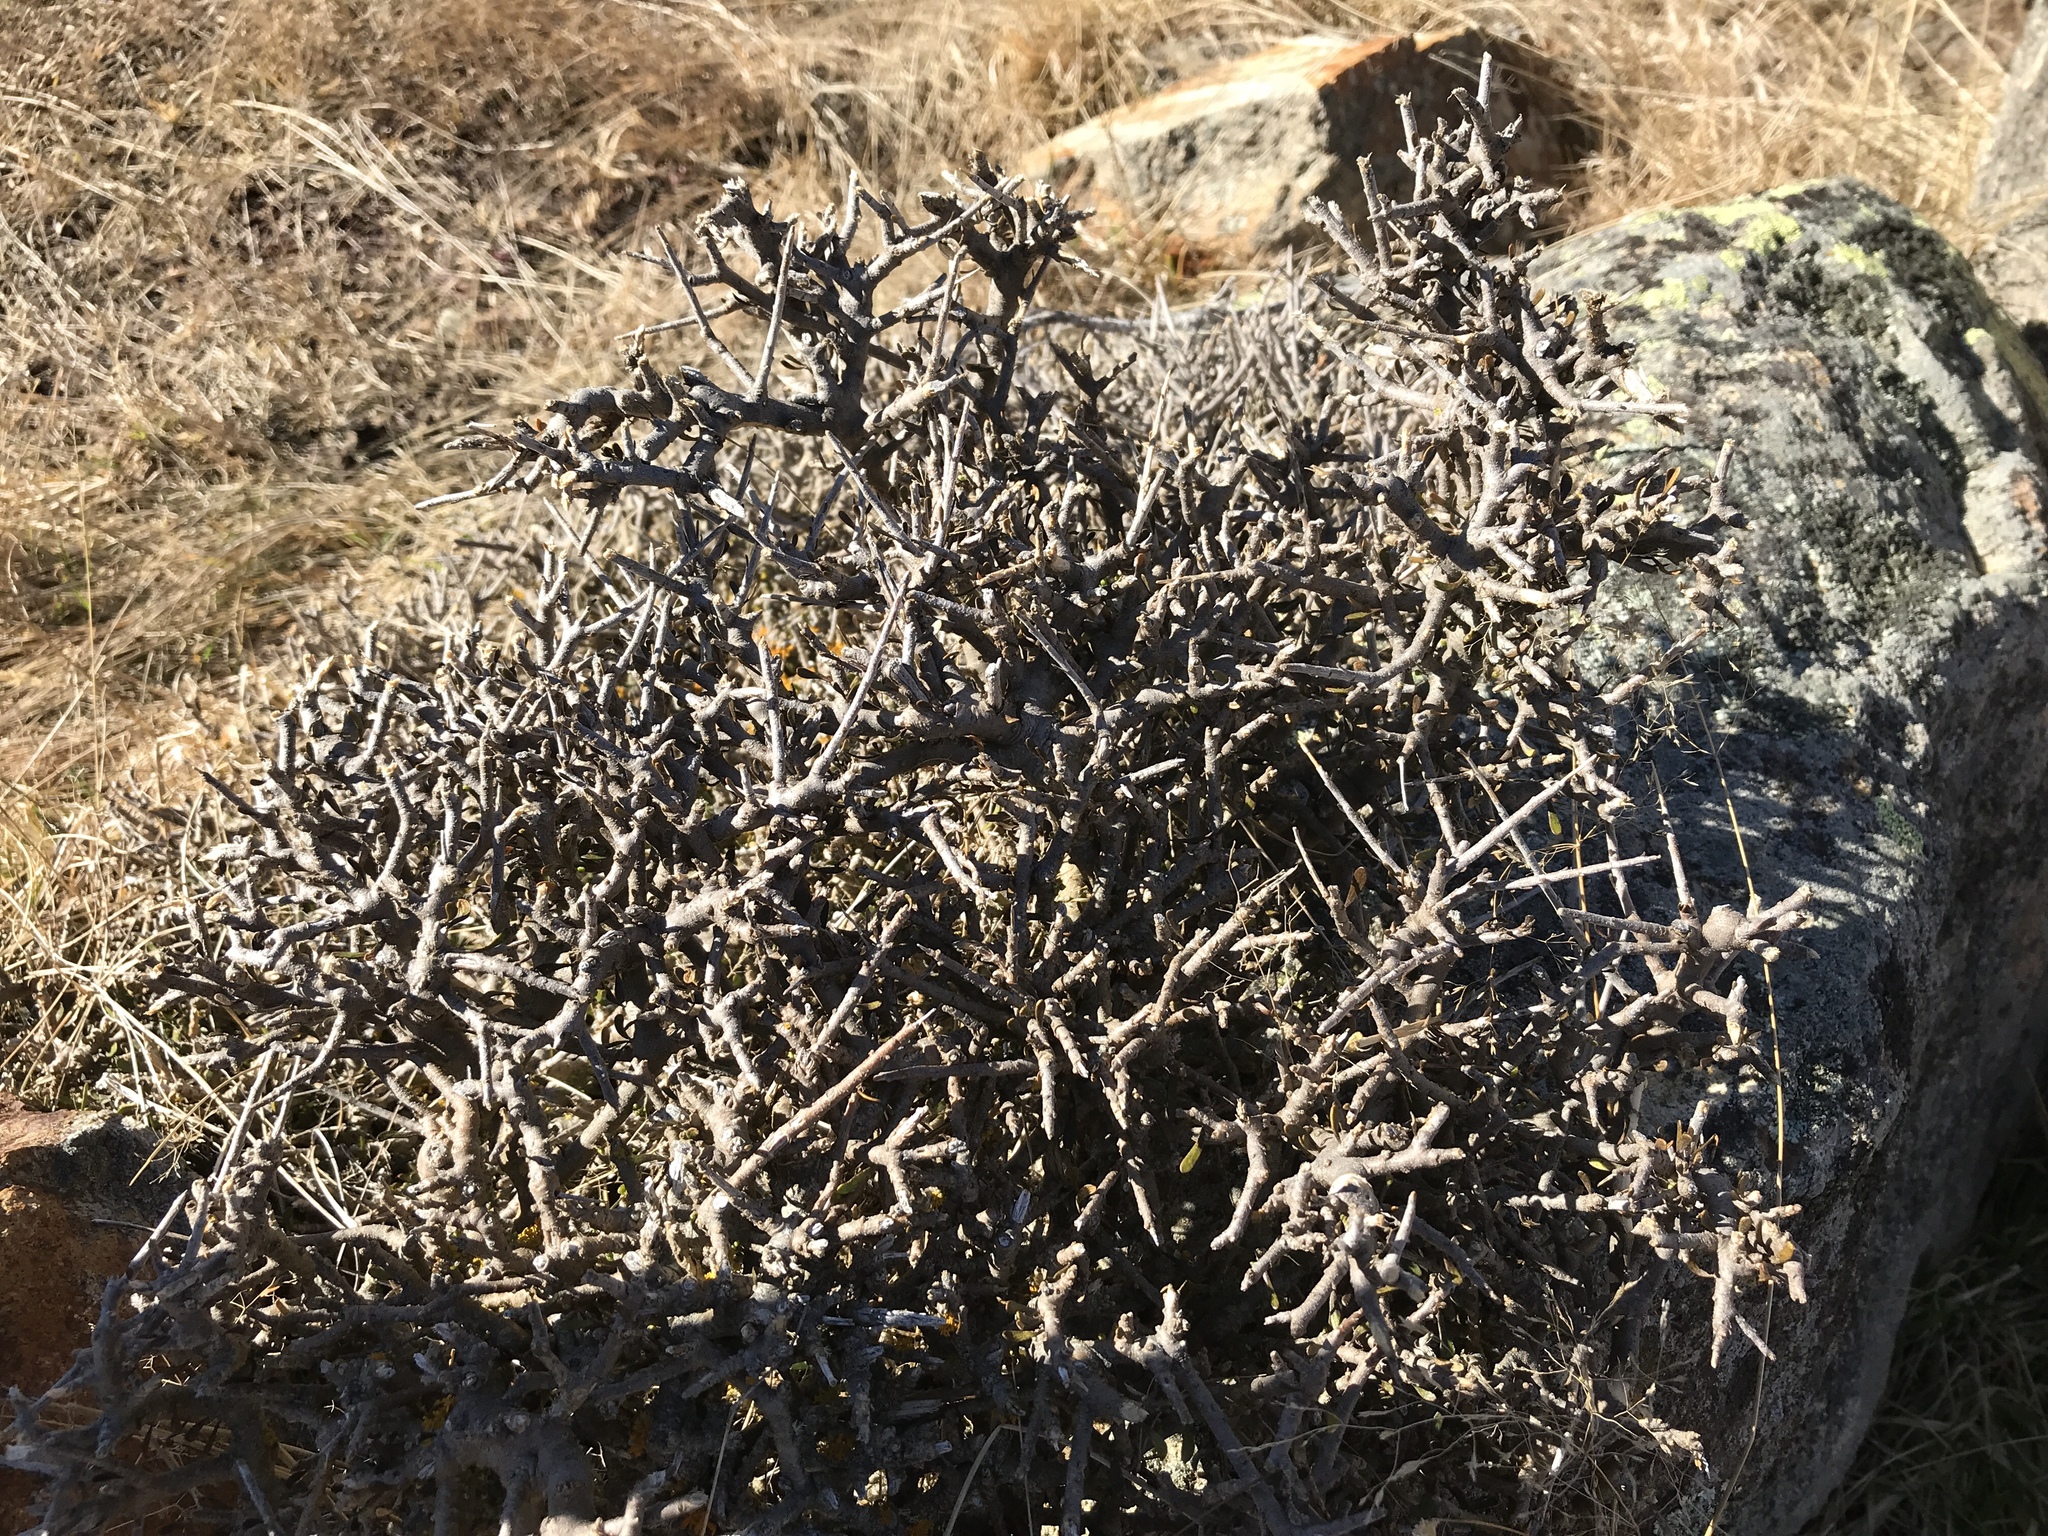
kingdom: Plantae
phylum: Tracheophyta
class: Magnoliopsida
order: Malpighiales
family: Violaceae
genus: Melicytus
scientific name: Melicytus alpinus
